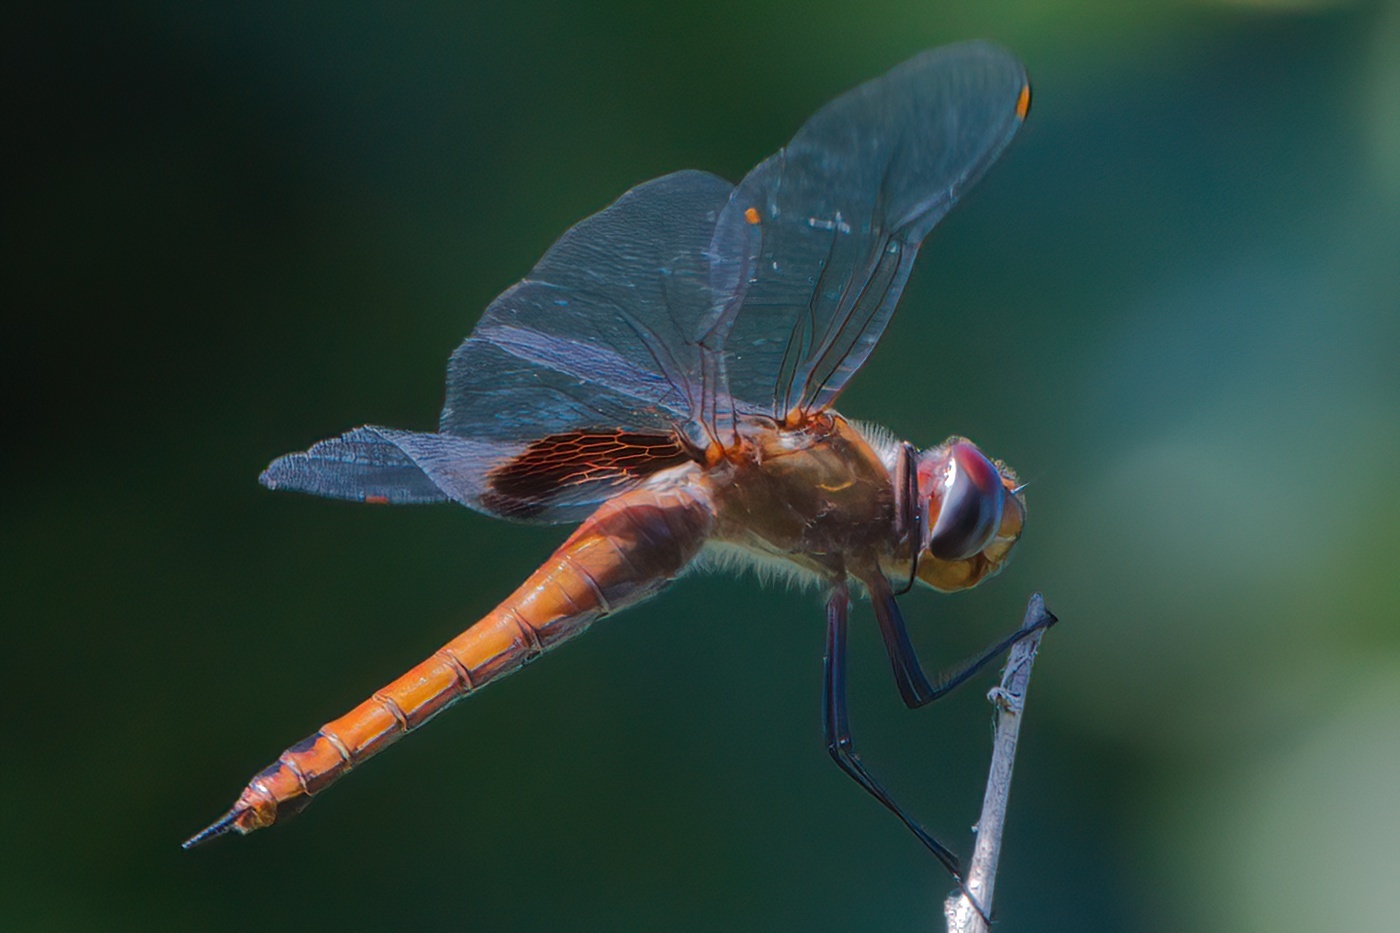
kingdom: Animalia
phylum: Arthropoda
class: Insecta
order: Odonata
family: Libellulidae
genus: Tramea
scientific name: Tramea abdominalis
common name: Vermilion saddlebags
